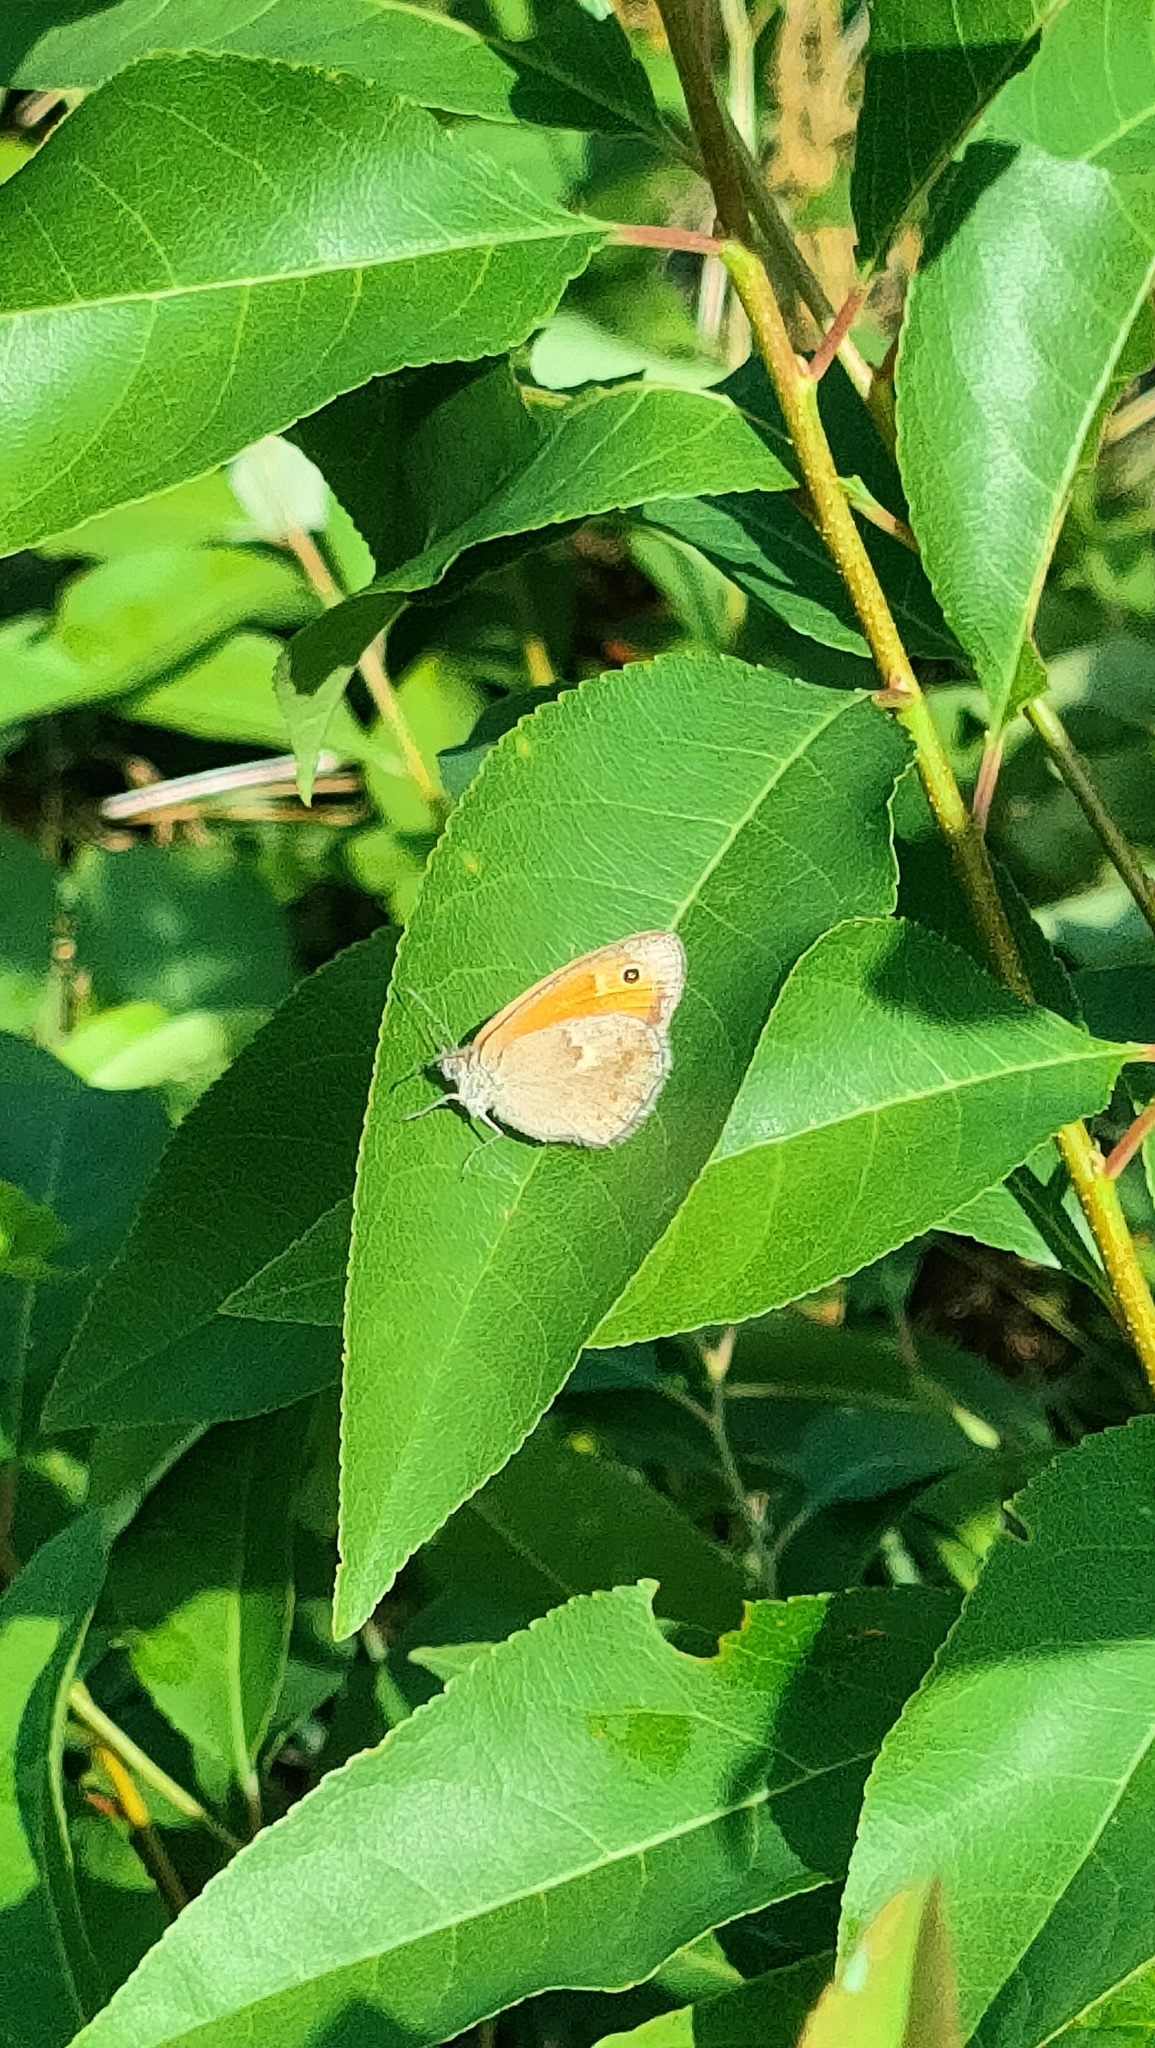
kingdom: Animalia
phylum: Arthropoda
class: Insecta
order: Lepidoptera
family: Nymphalidae
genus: Coenonympha
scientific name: Coenonympha pamphilus
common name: Small heath
